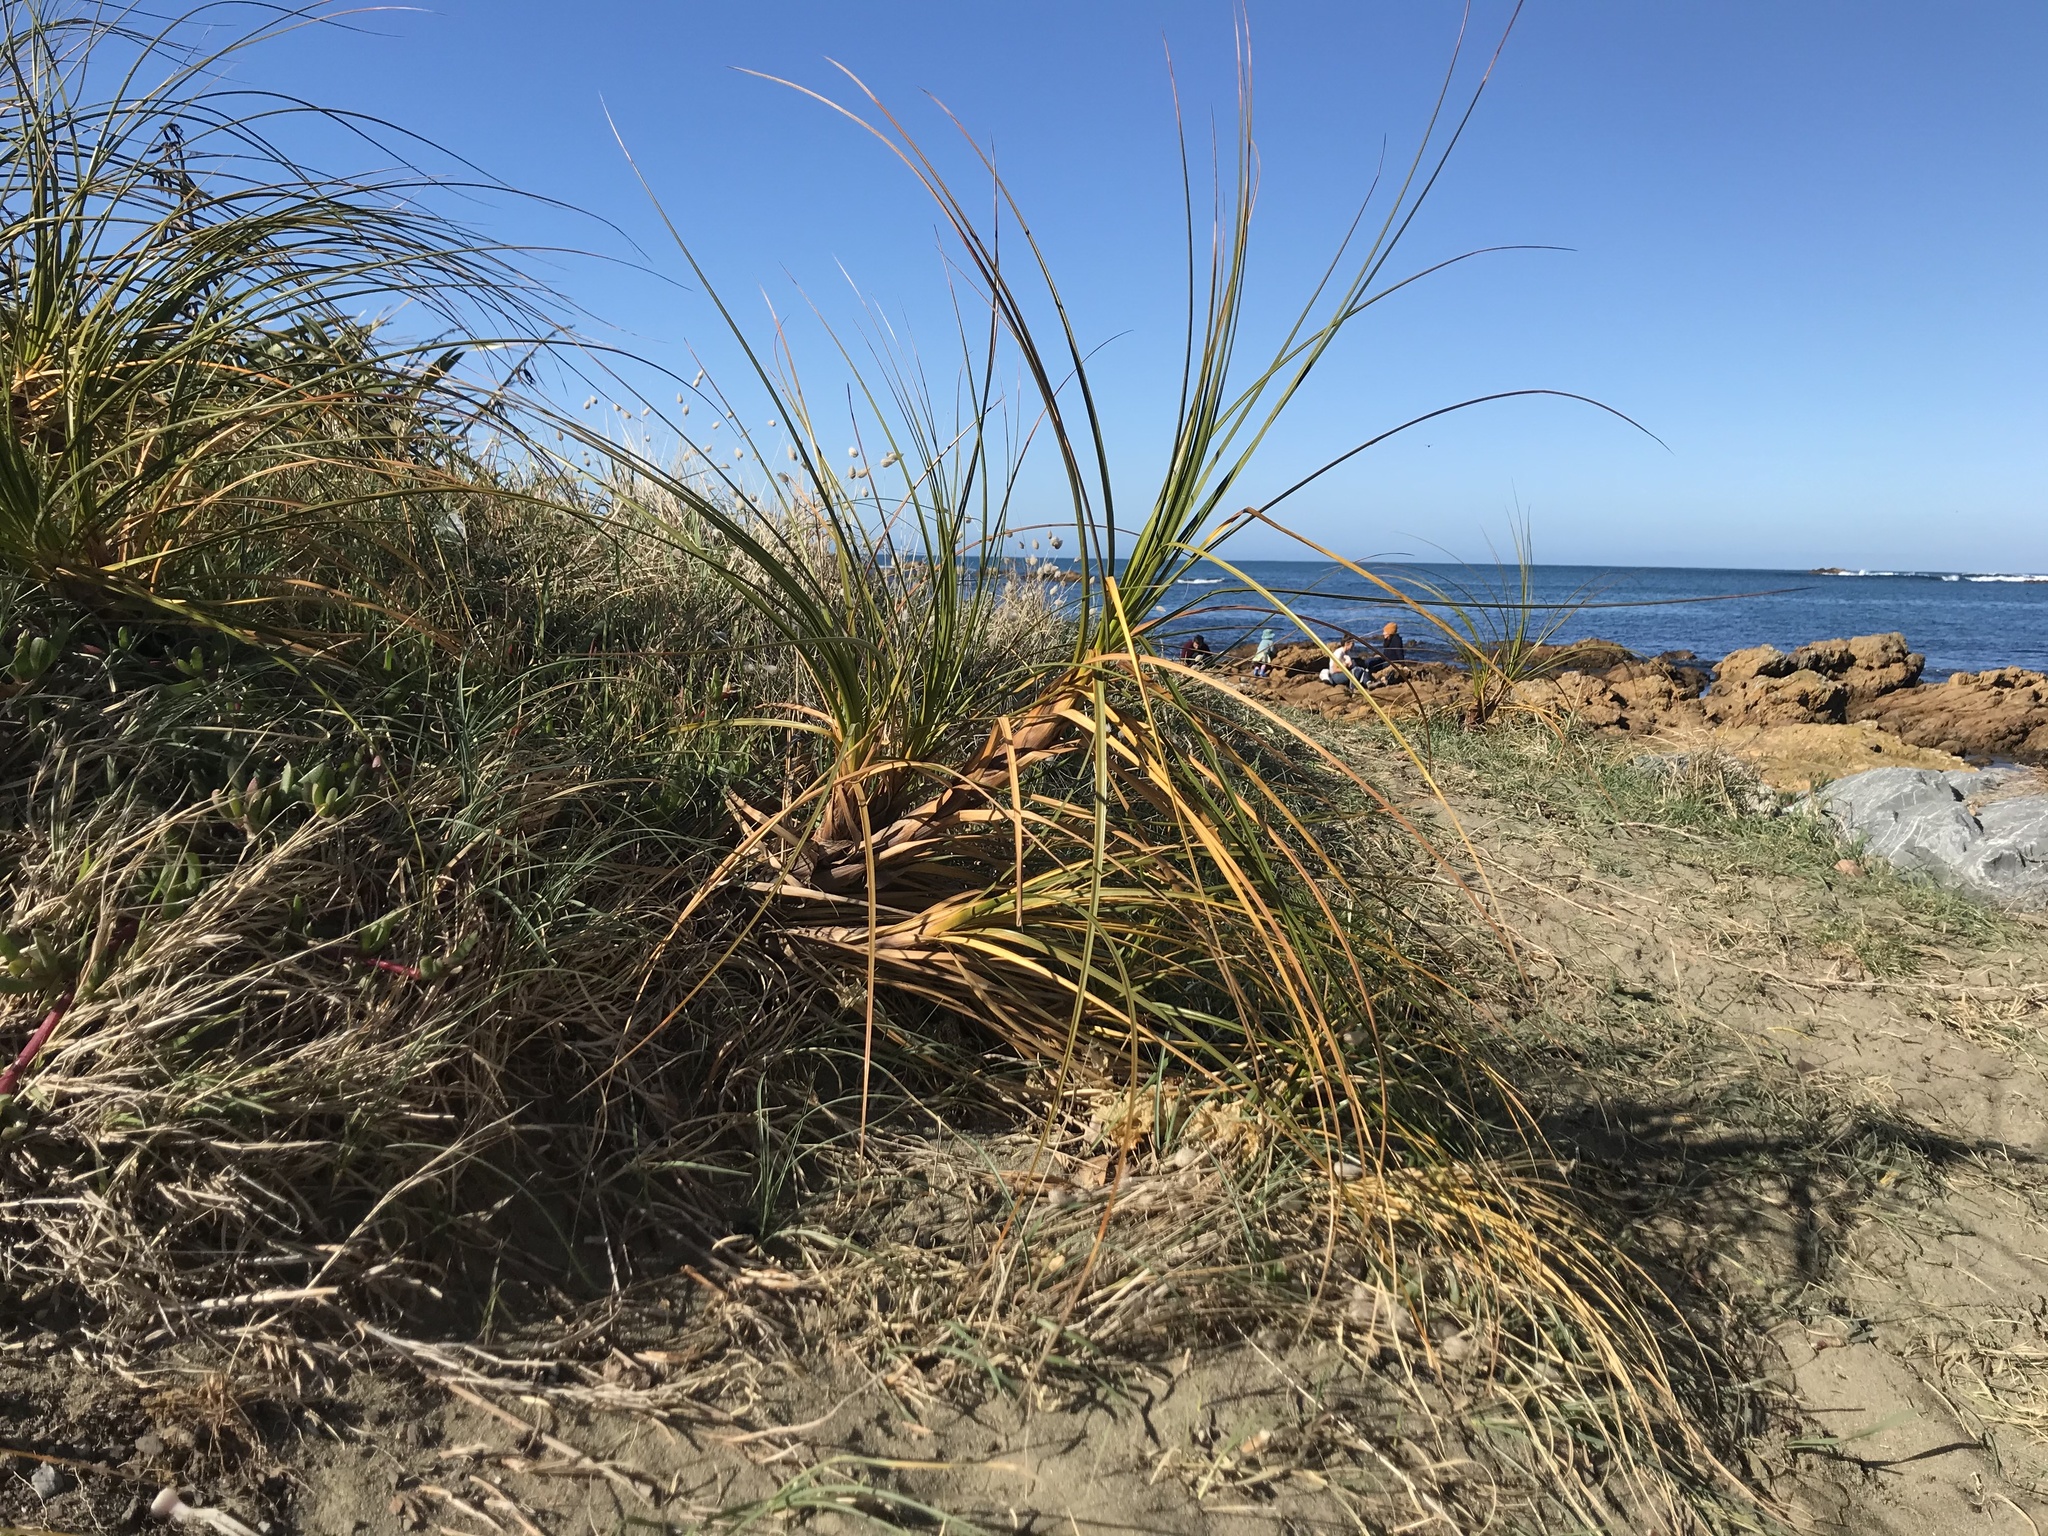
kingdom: Plantae
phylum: Tracheophyta
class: Liliopsida
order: Poales
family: Cyperaceae
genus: Ficinia
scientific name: Ficinia spiralis
